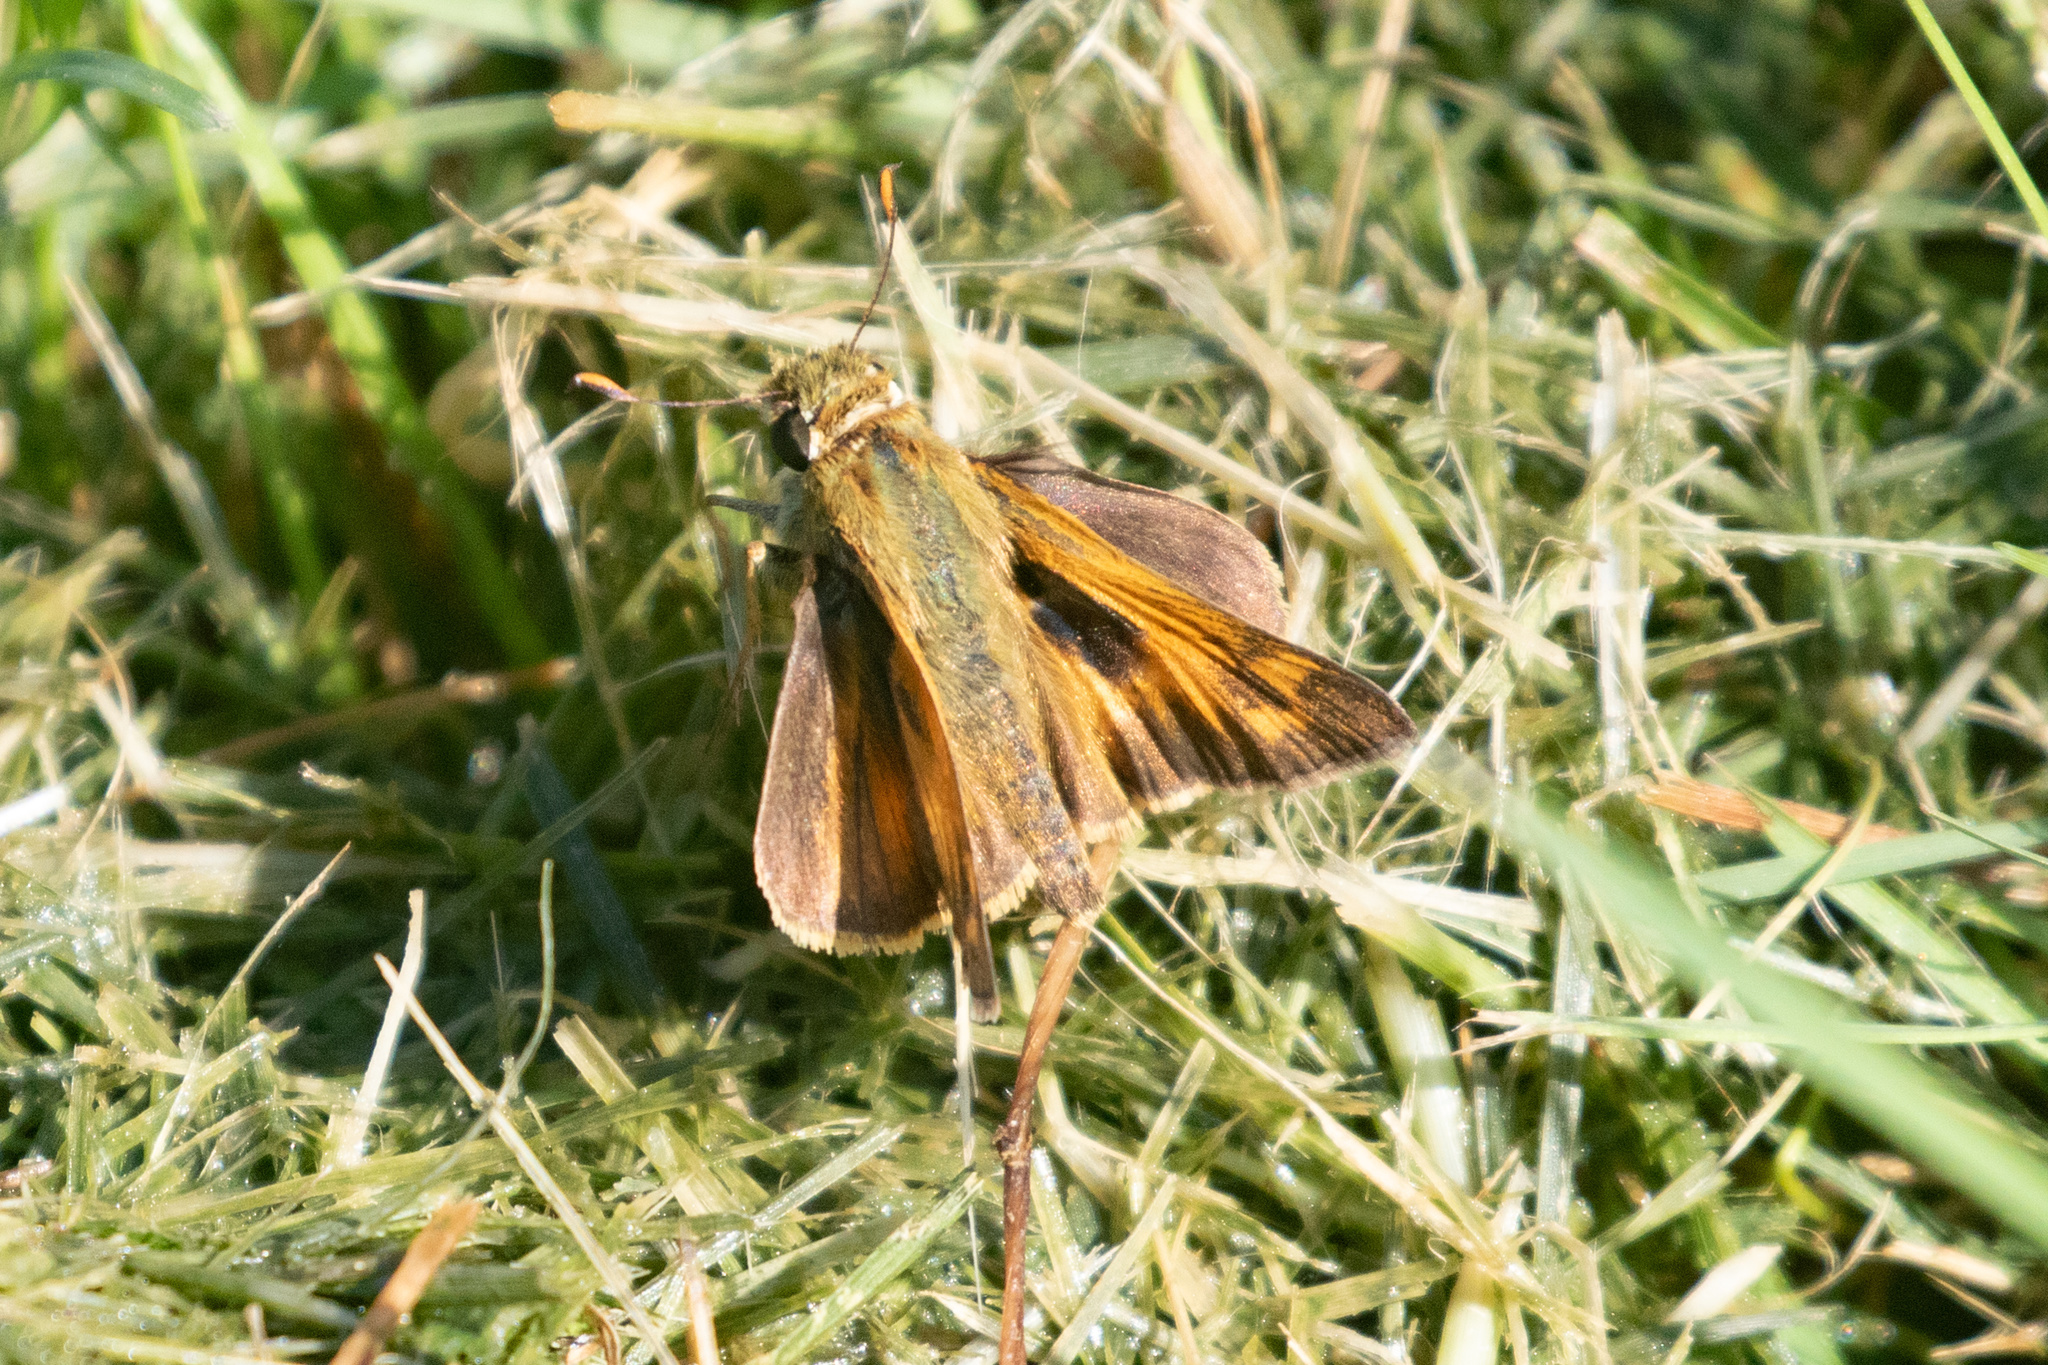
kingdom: Animalia
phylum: Arthropoda
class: Insecta
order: Lepidoptera
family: Hesperiidae
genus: Atalopedes
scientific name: Atalopedes
